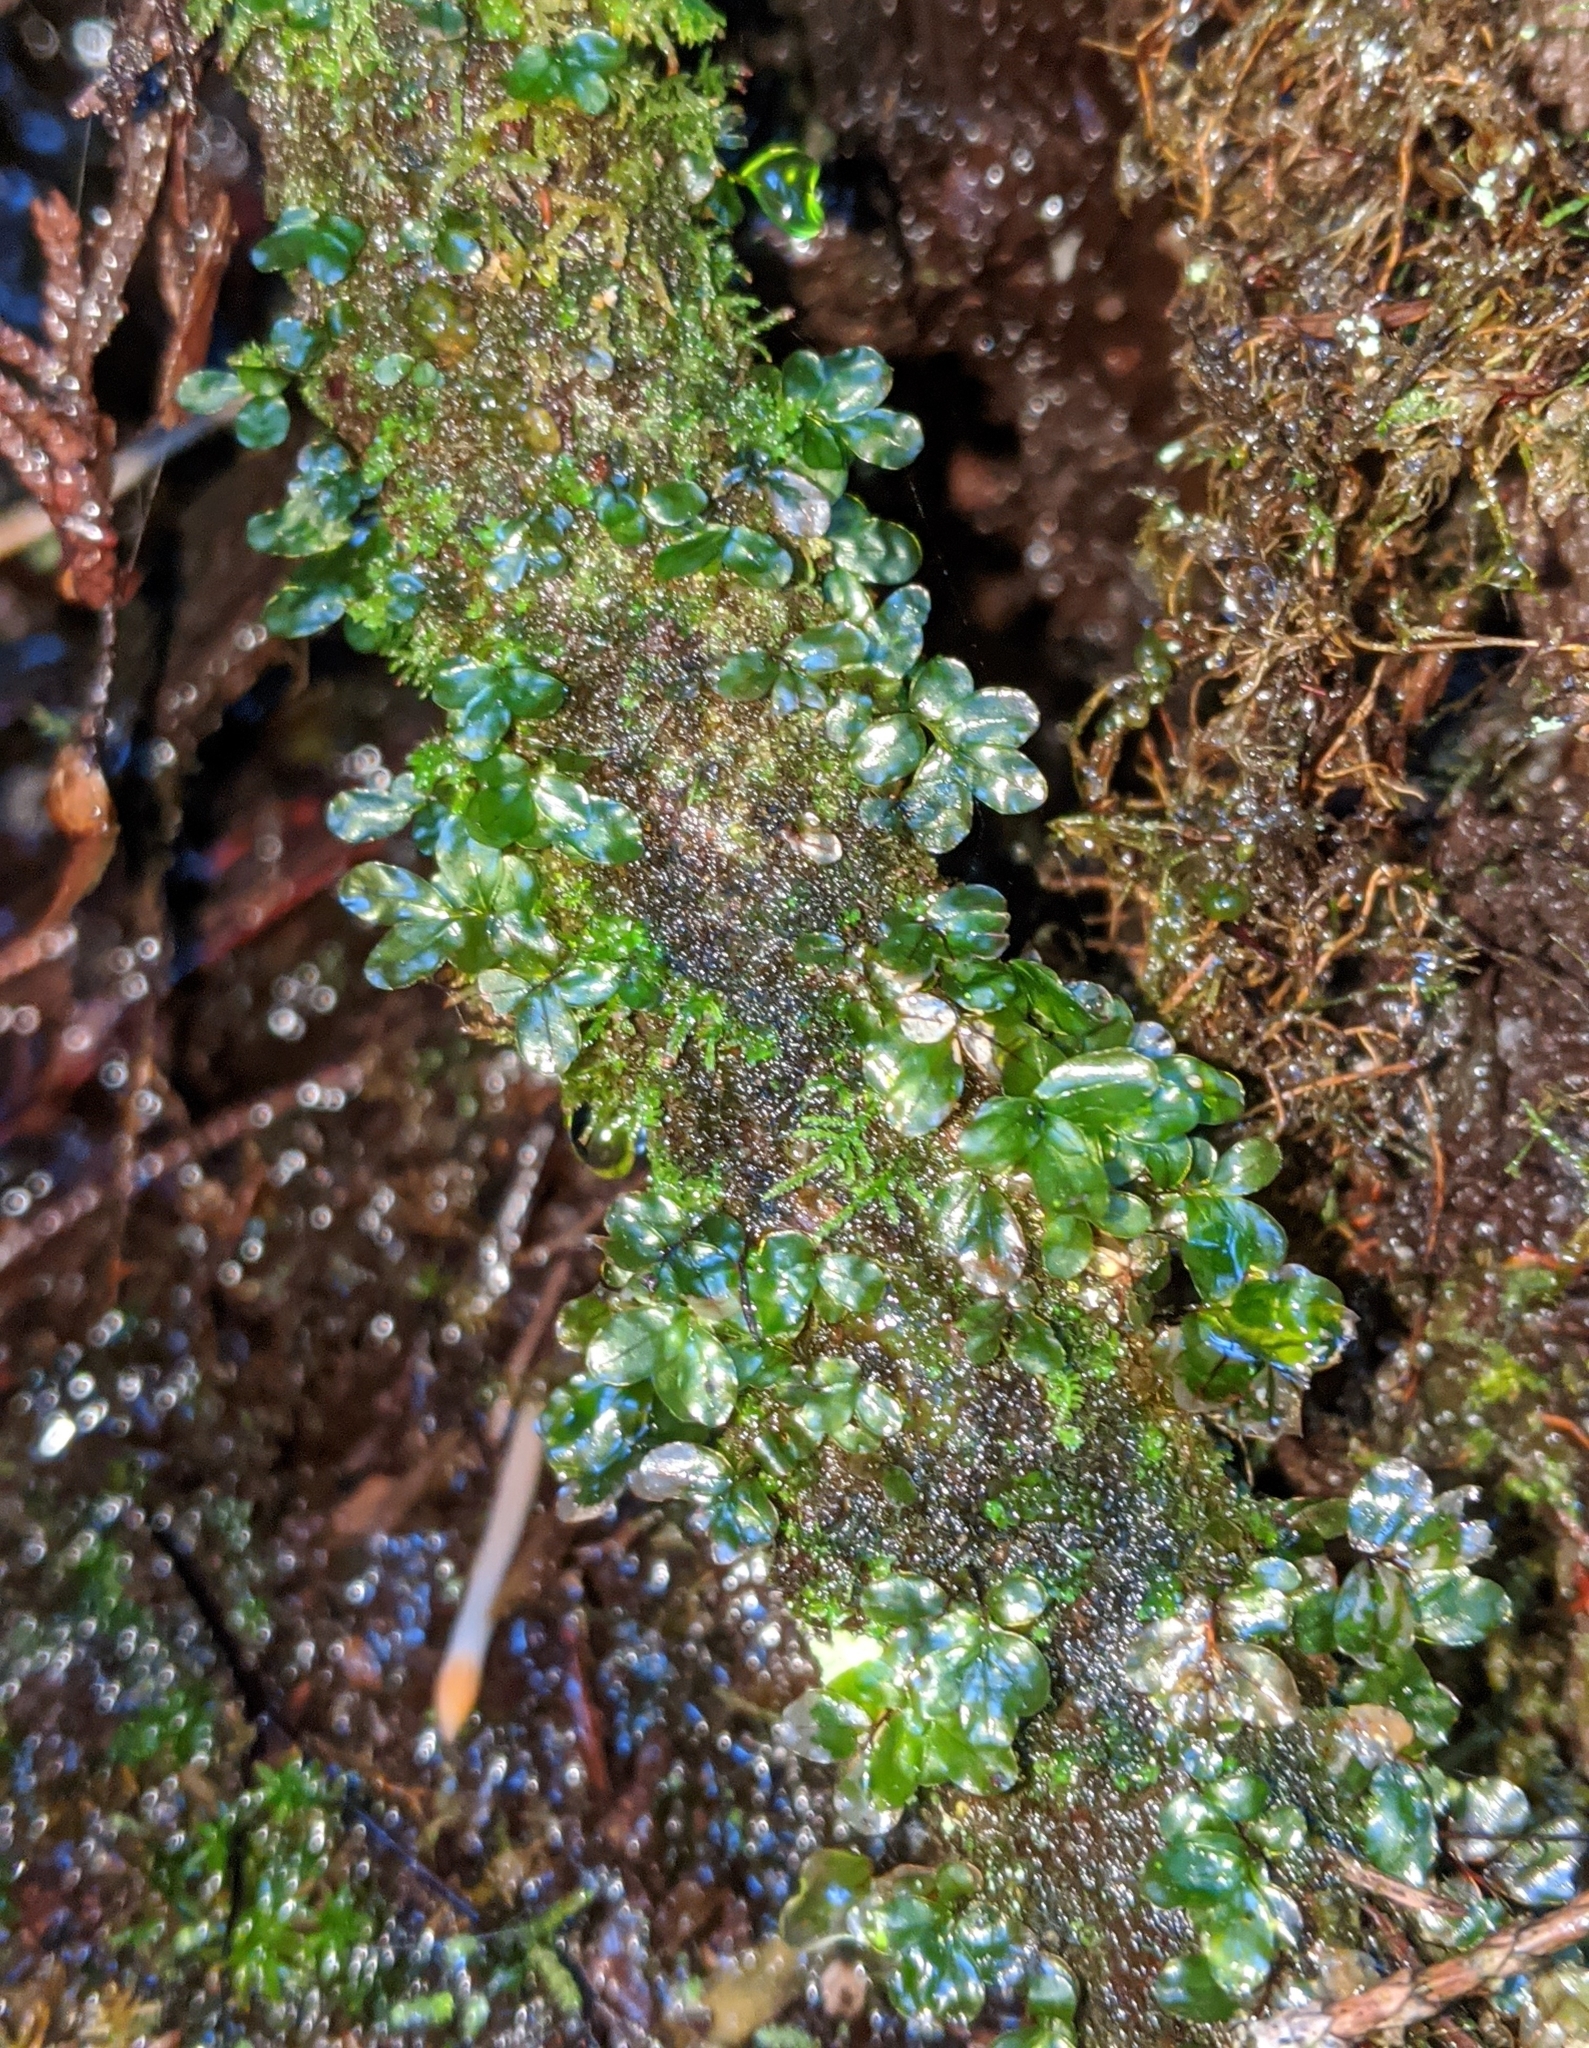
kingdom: Plantae
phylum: Bryophyta
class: Bryopsida
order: Bryales
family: Mniaceae
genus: Rhizomnium
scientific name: Rhizomnium glabrescens
